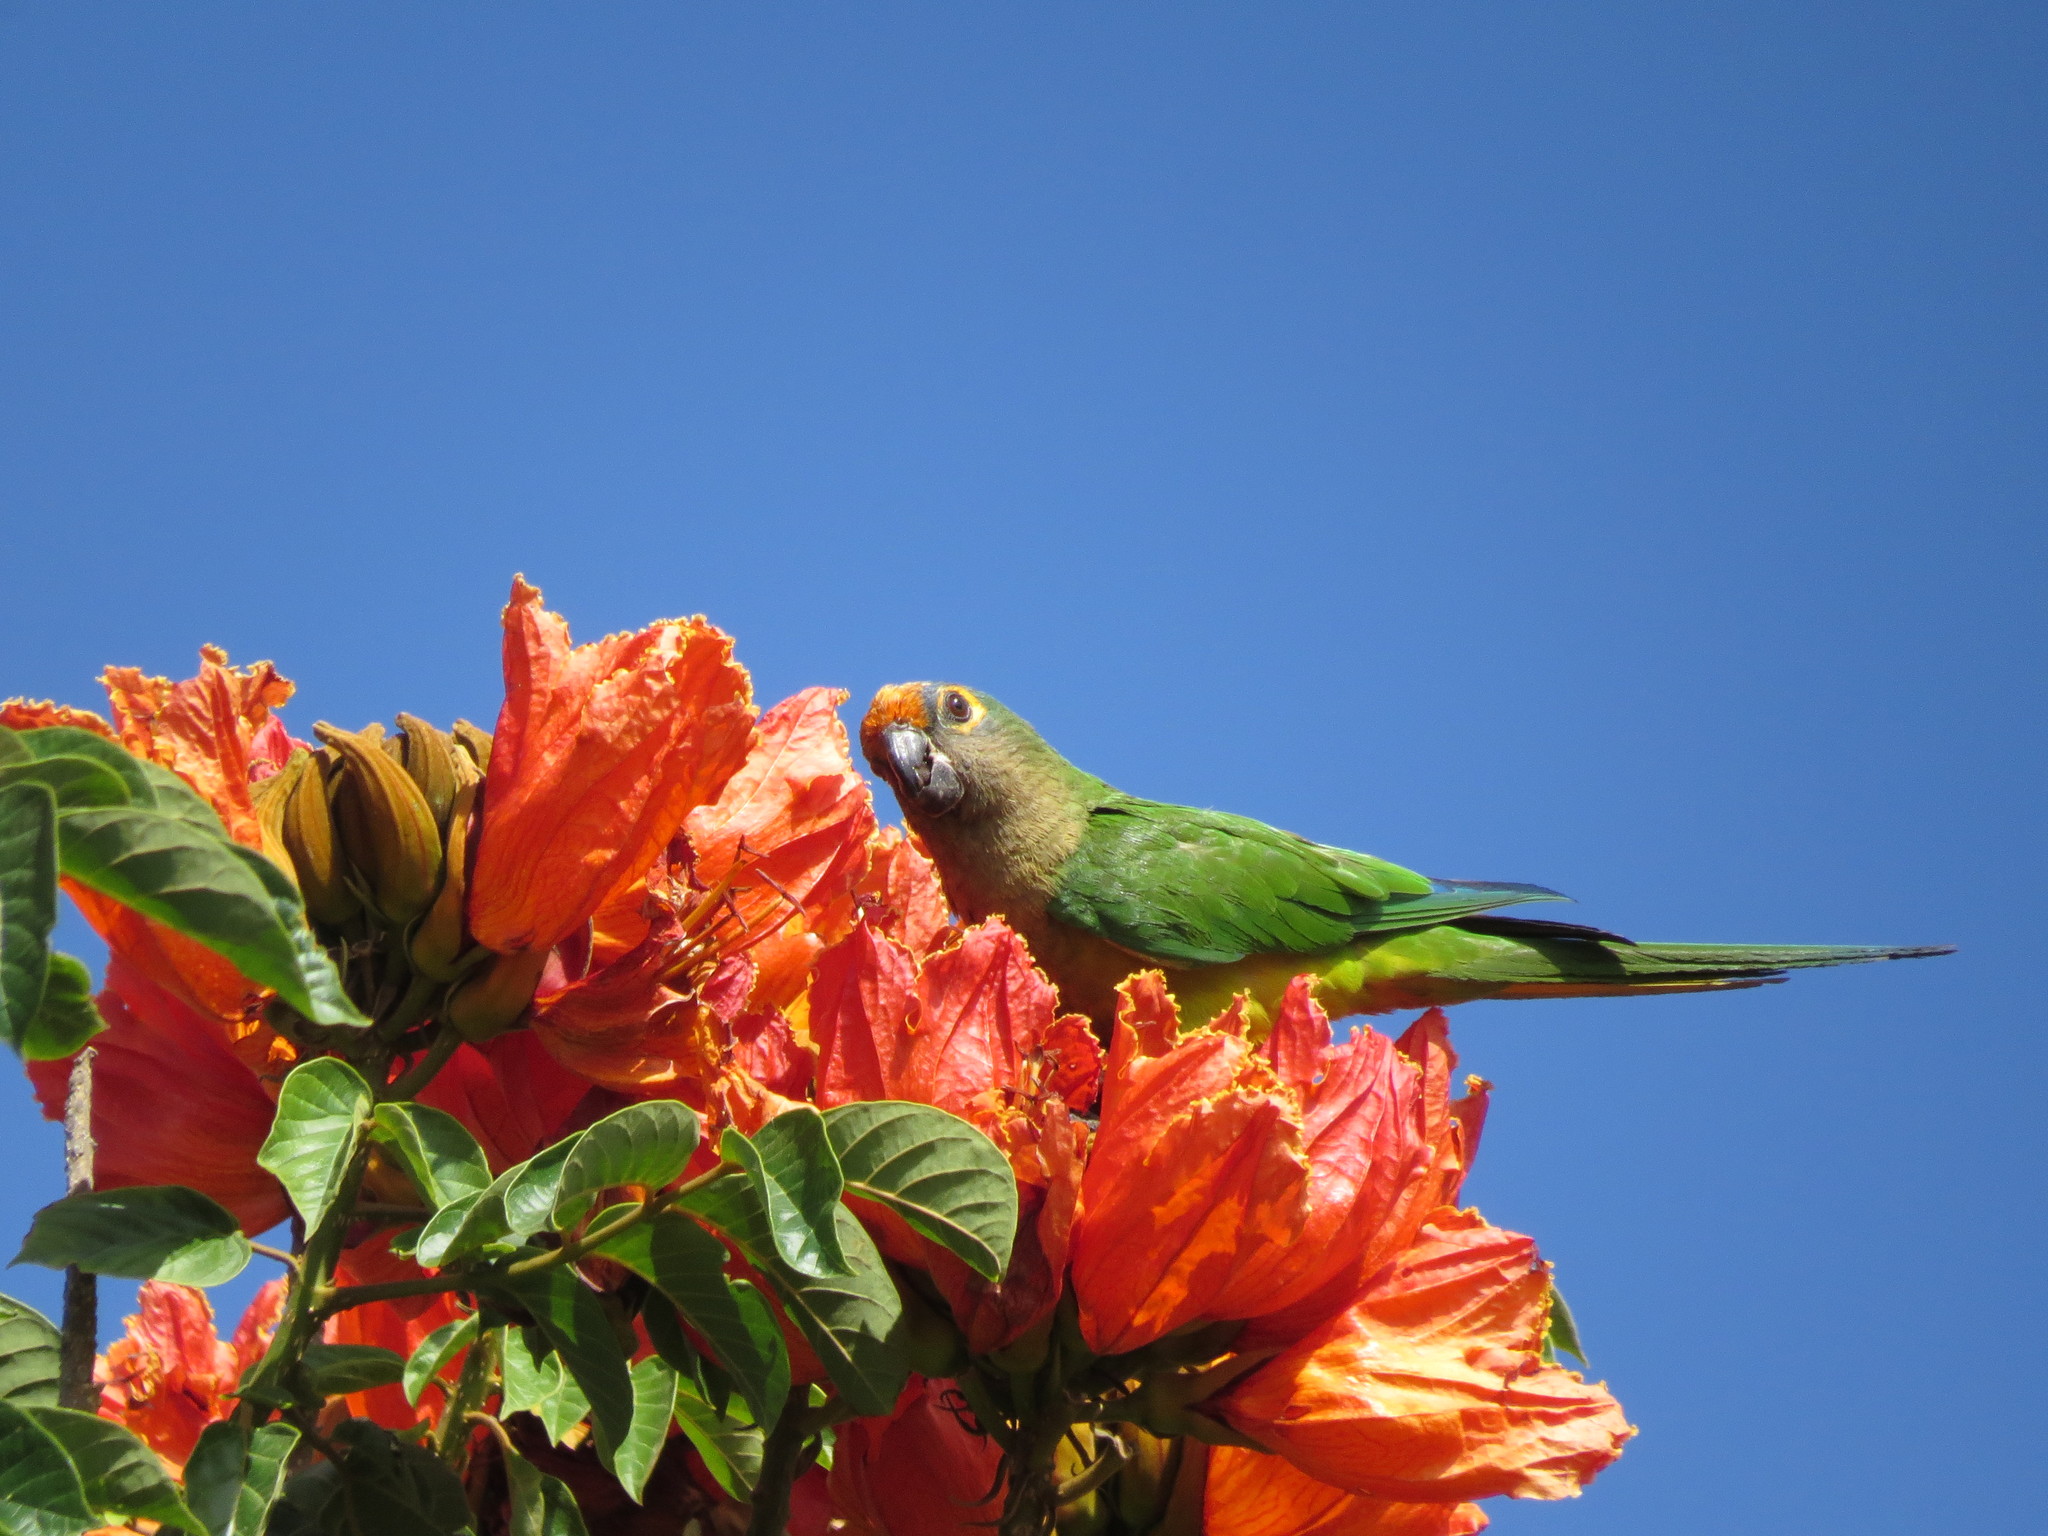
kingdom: Animalia
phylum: Chordata
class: Aves
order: Psittaciformes
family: Psittacidae
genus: Aratinga
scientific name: Aratinga aurea
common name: Peach-fronted parakeet
